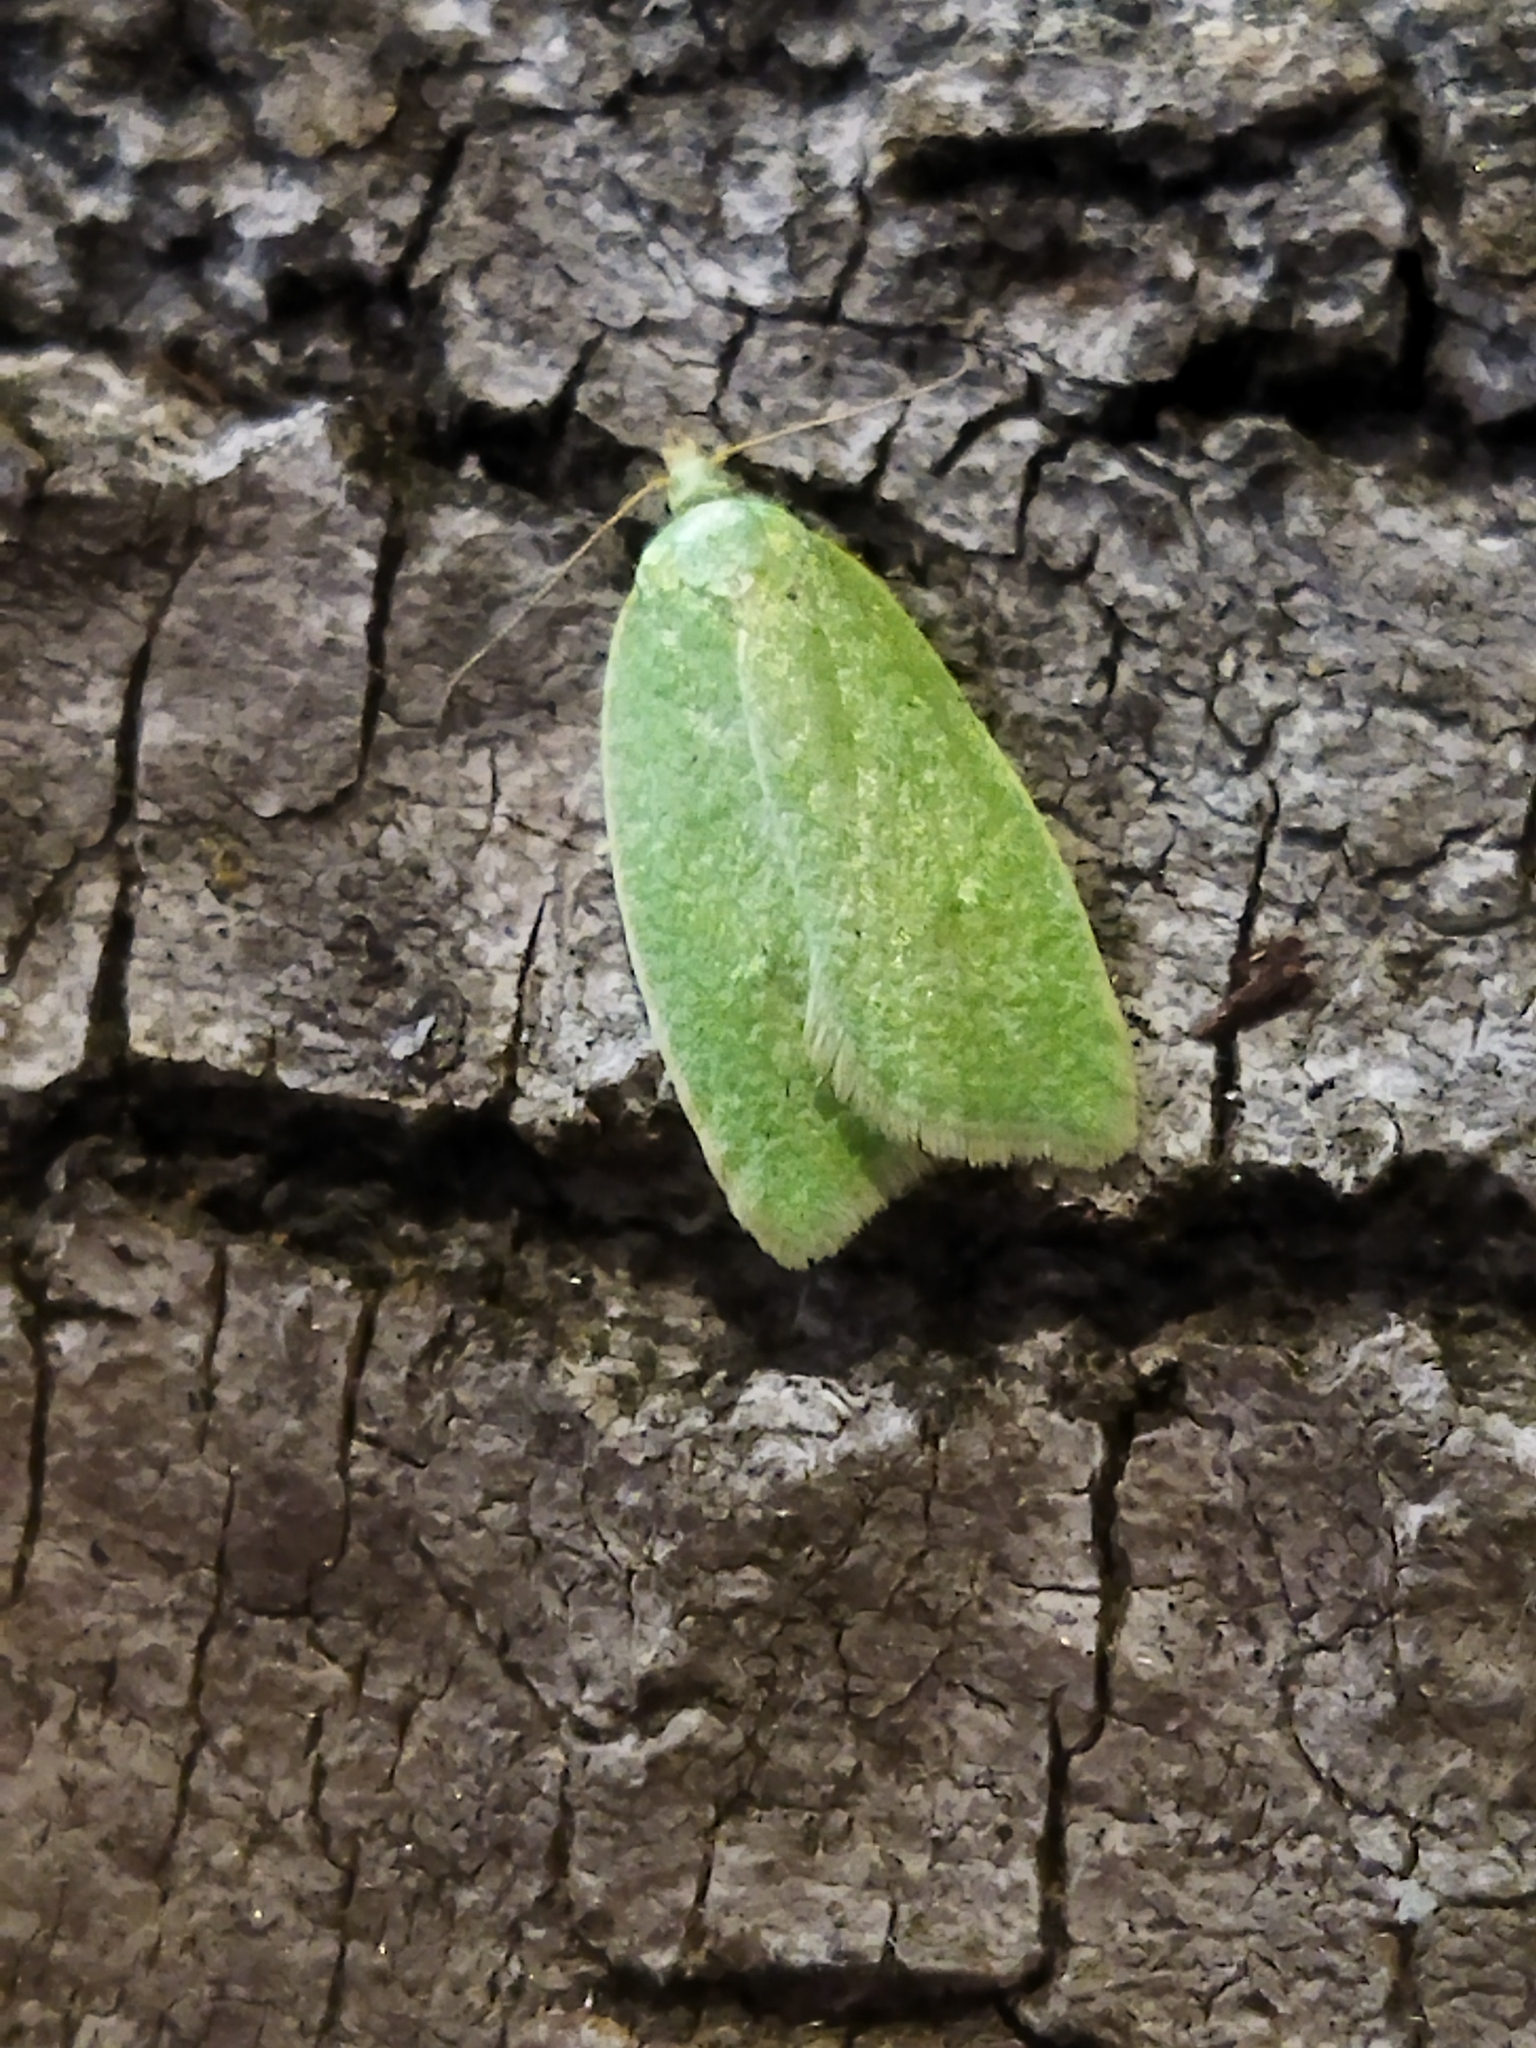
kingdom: Animalia
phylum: Arthropoda
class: Insecta
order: Lepidoptera
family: Tortricidae
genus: Tortrix
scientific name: Tortrix viridana
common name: Green oak tortrix
